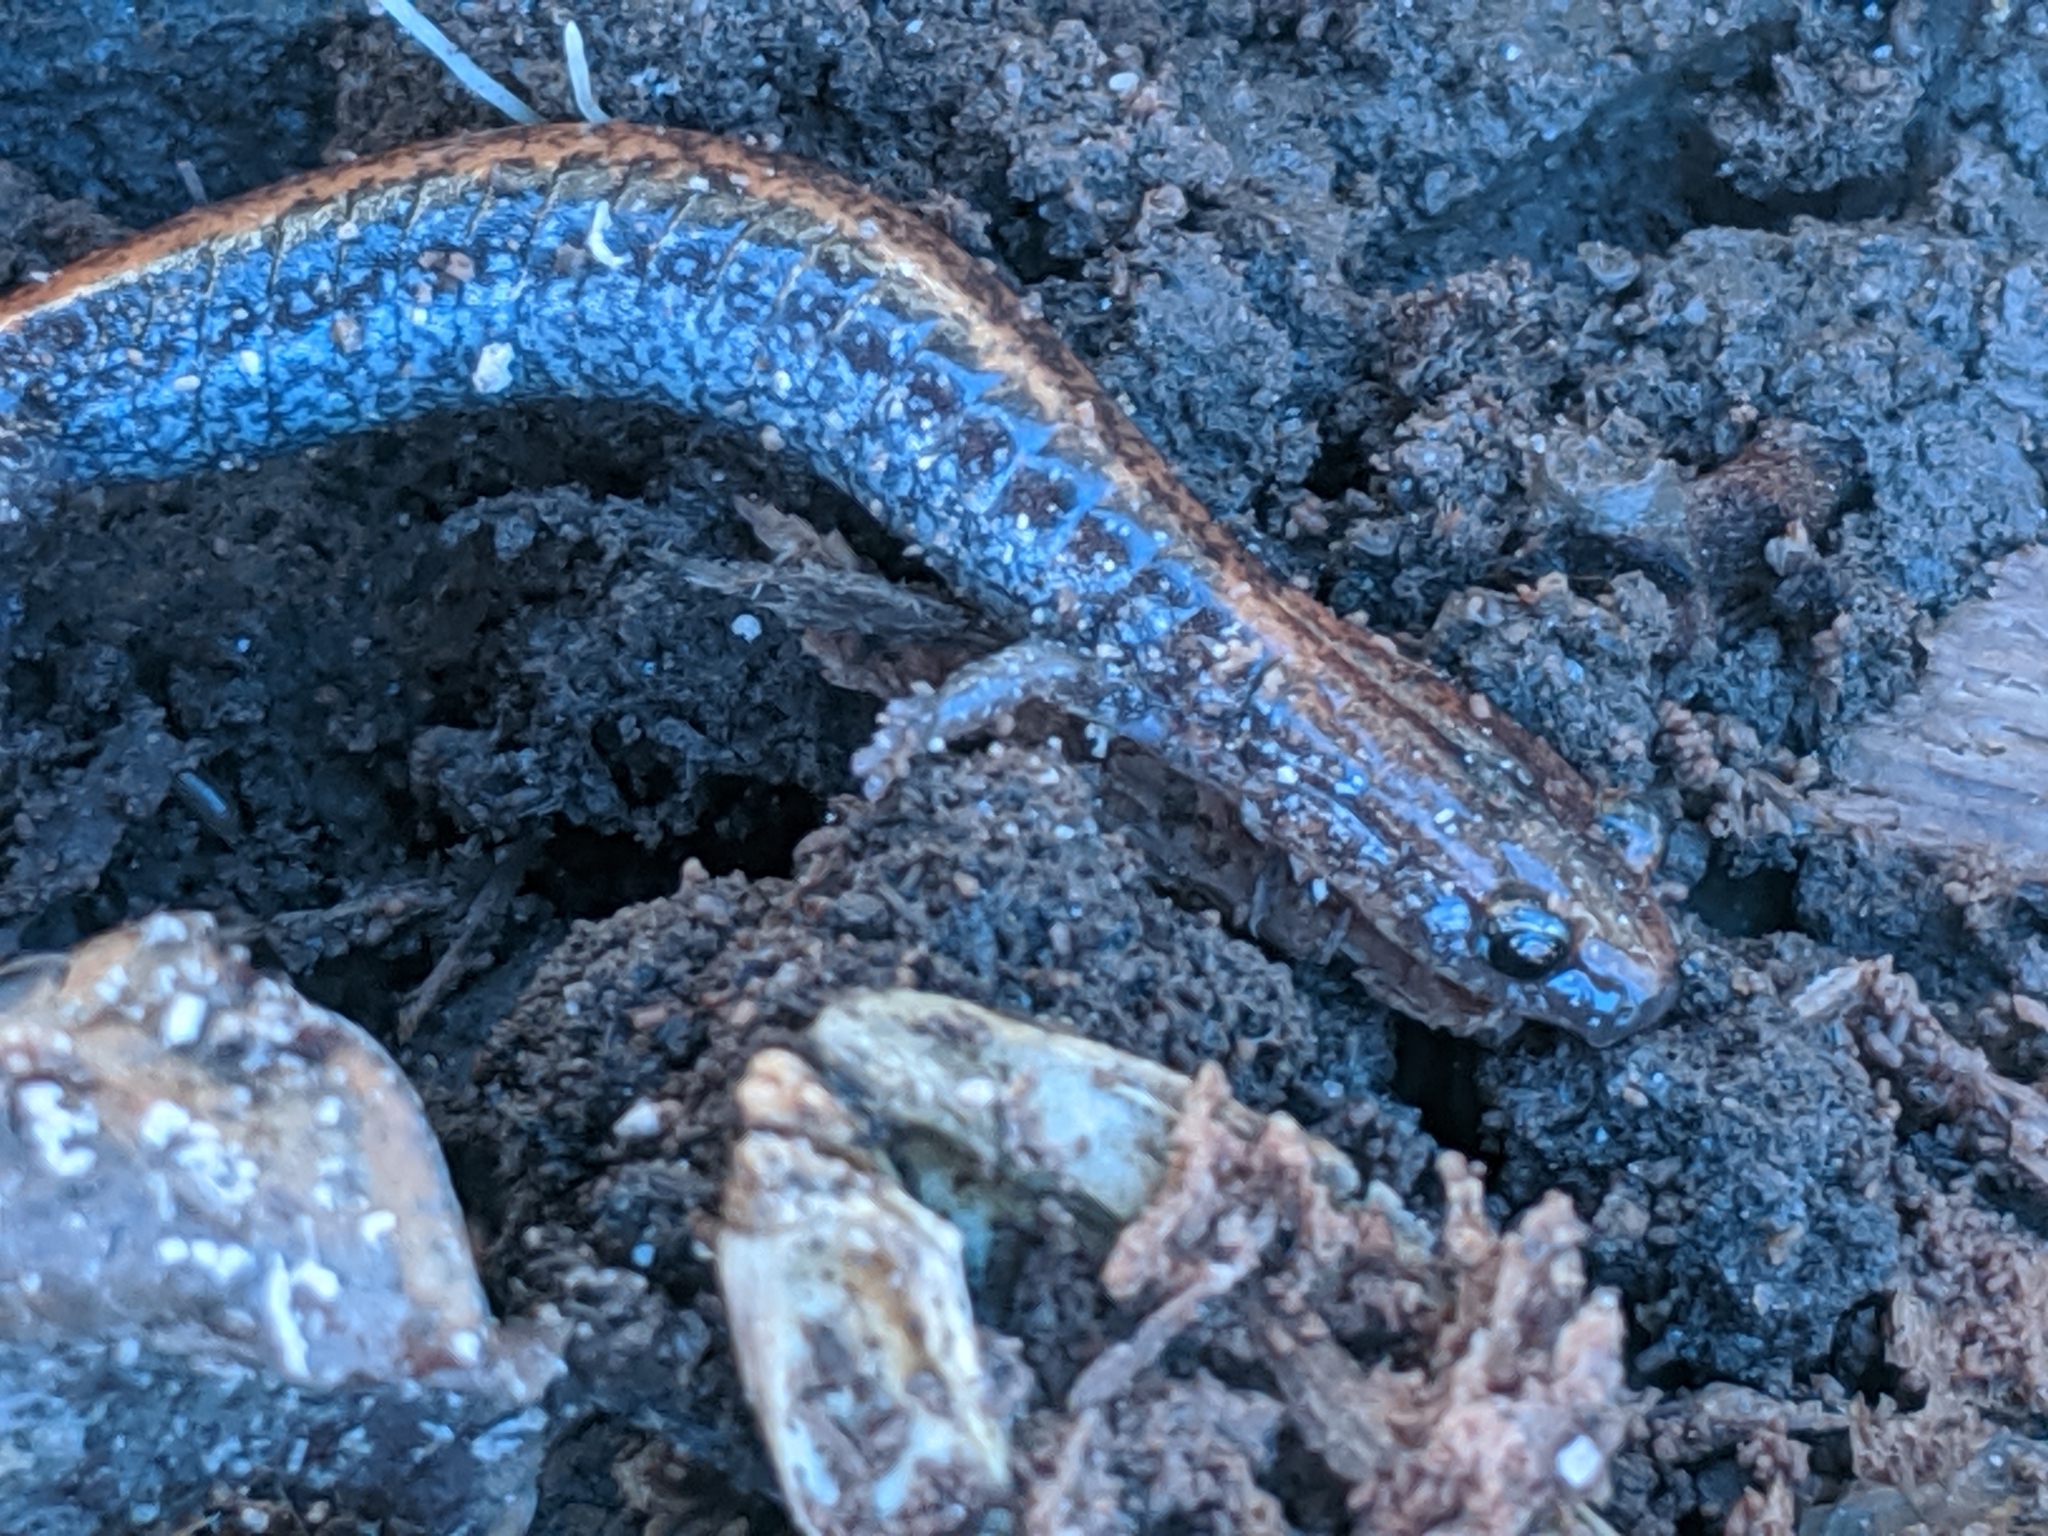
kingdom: Animalia
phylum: Chordata
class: Amphibia
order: Caudata
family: Plethodontidae
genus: Plethodon
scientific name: Plethodon cinereus
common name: Redback salamander
